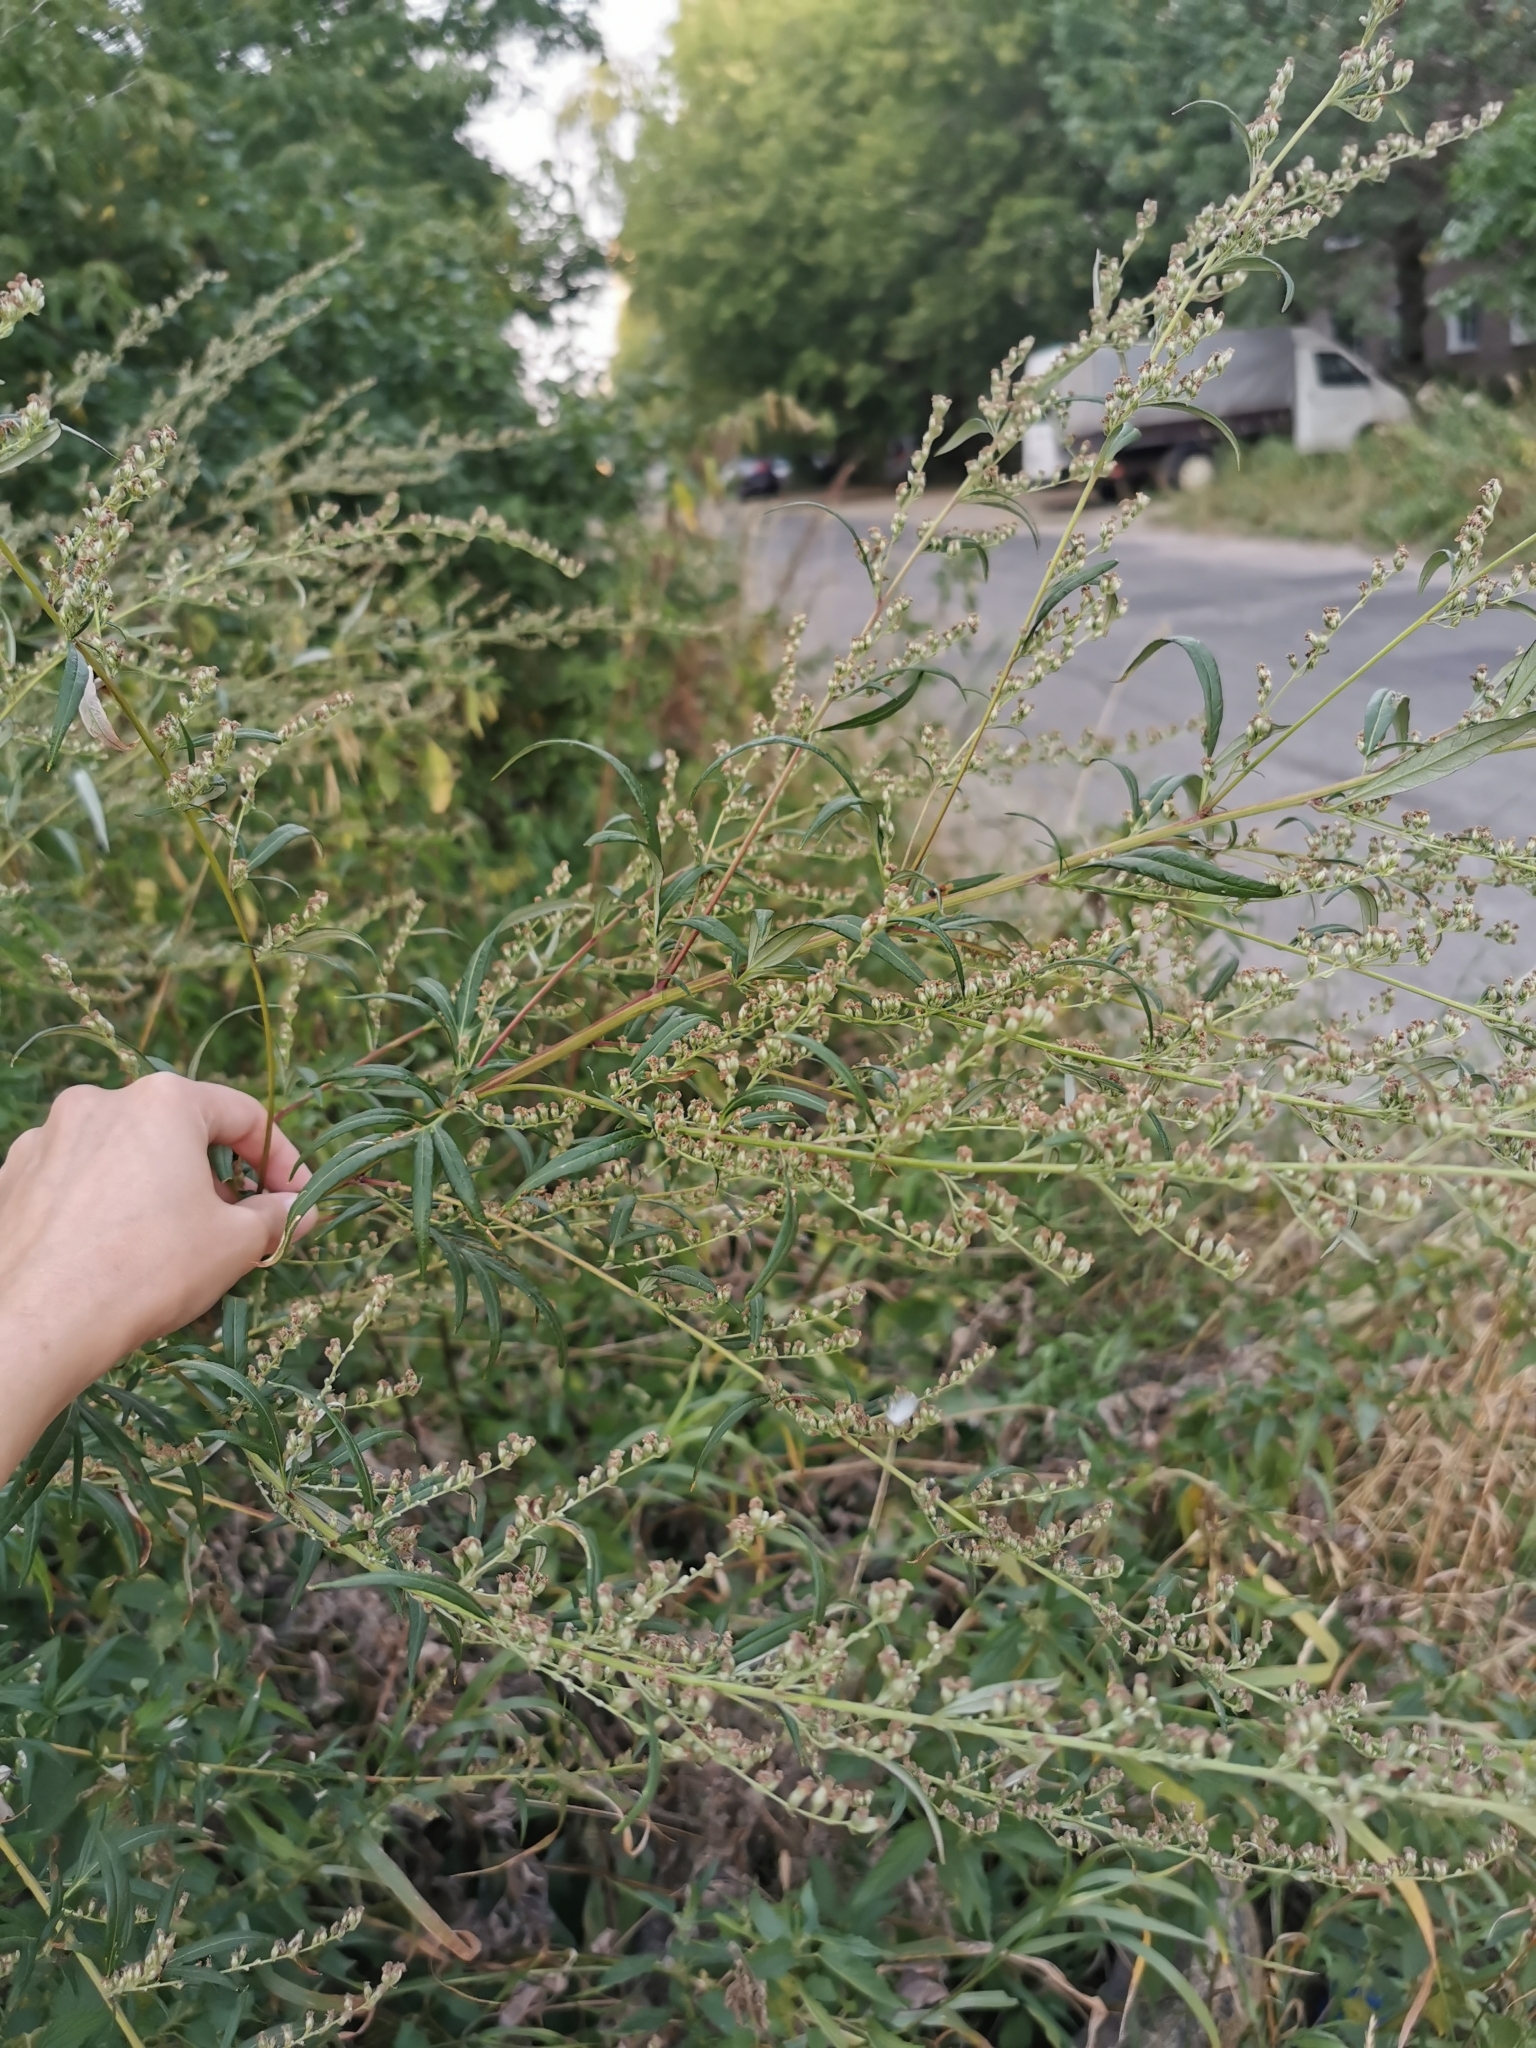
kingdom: Plantae
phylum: Tracheophyta
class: Magnoliopsida
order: Asterales
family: Asteraceae
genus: Artemisia
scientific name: Artemisia vulgaris
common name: Mugwort
